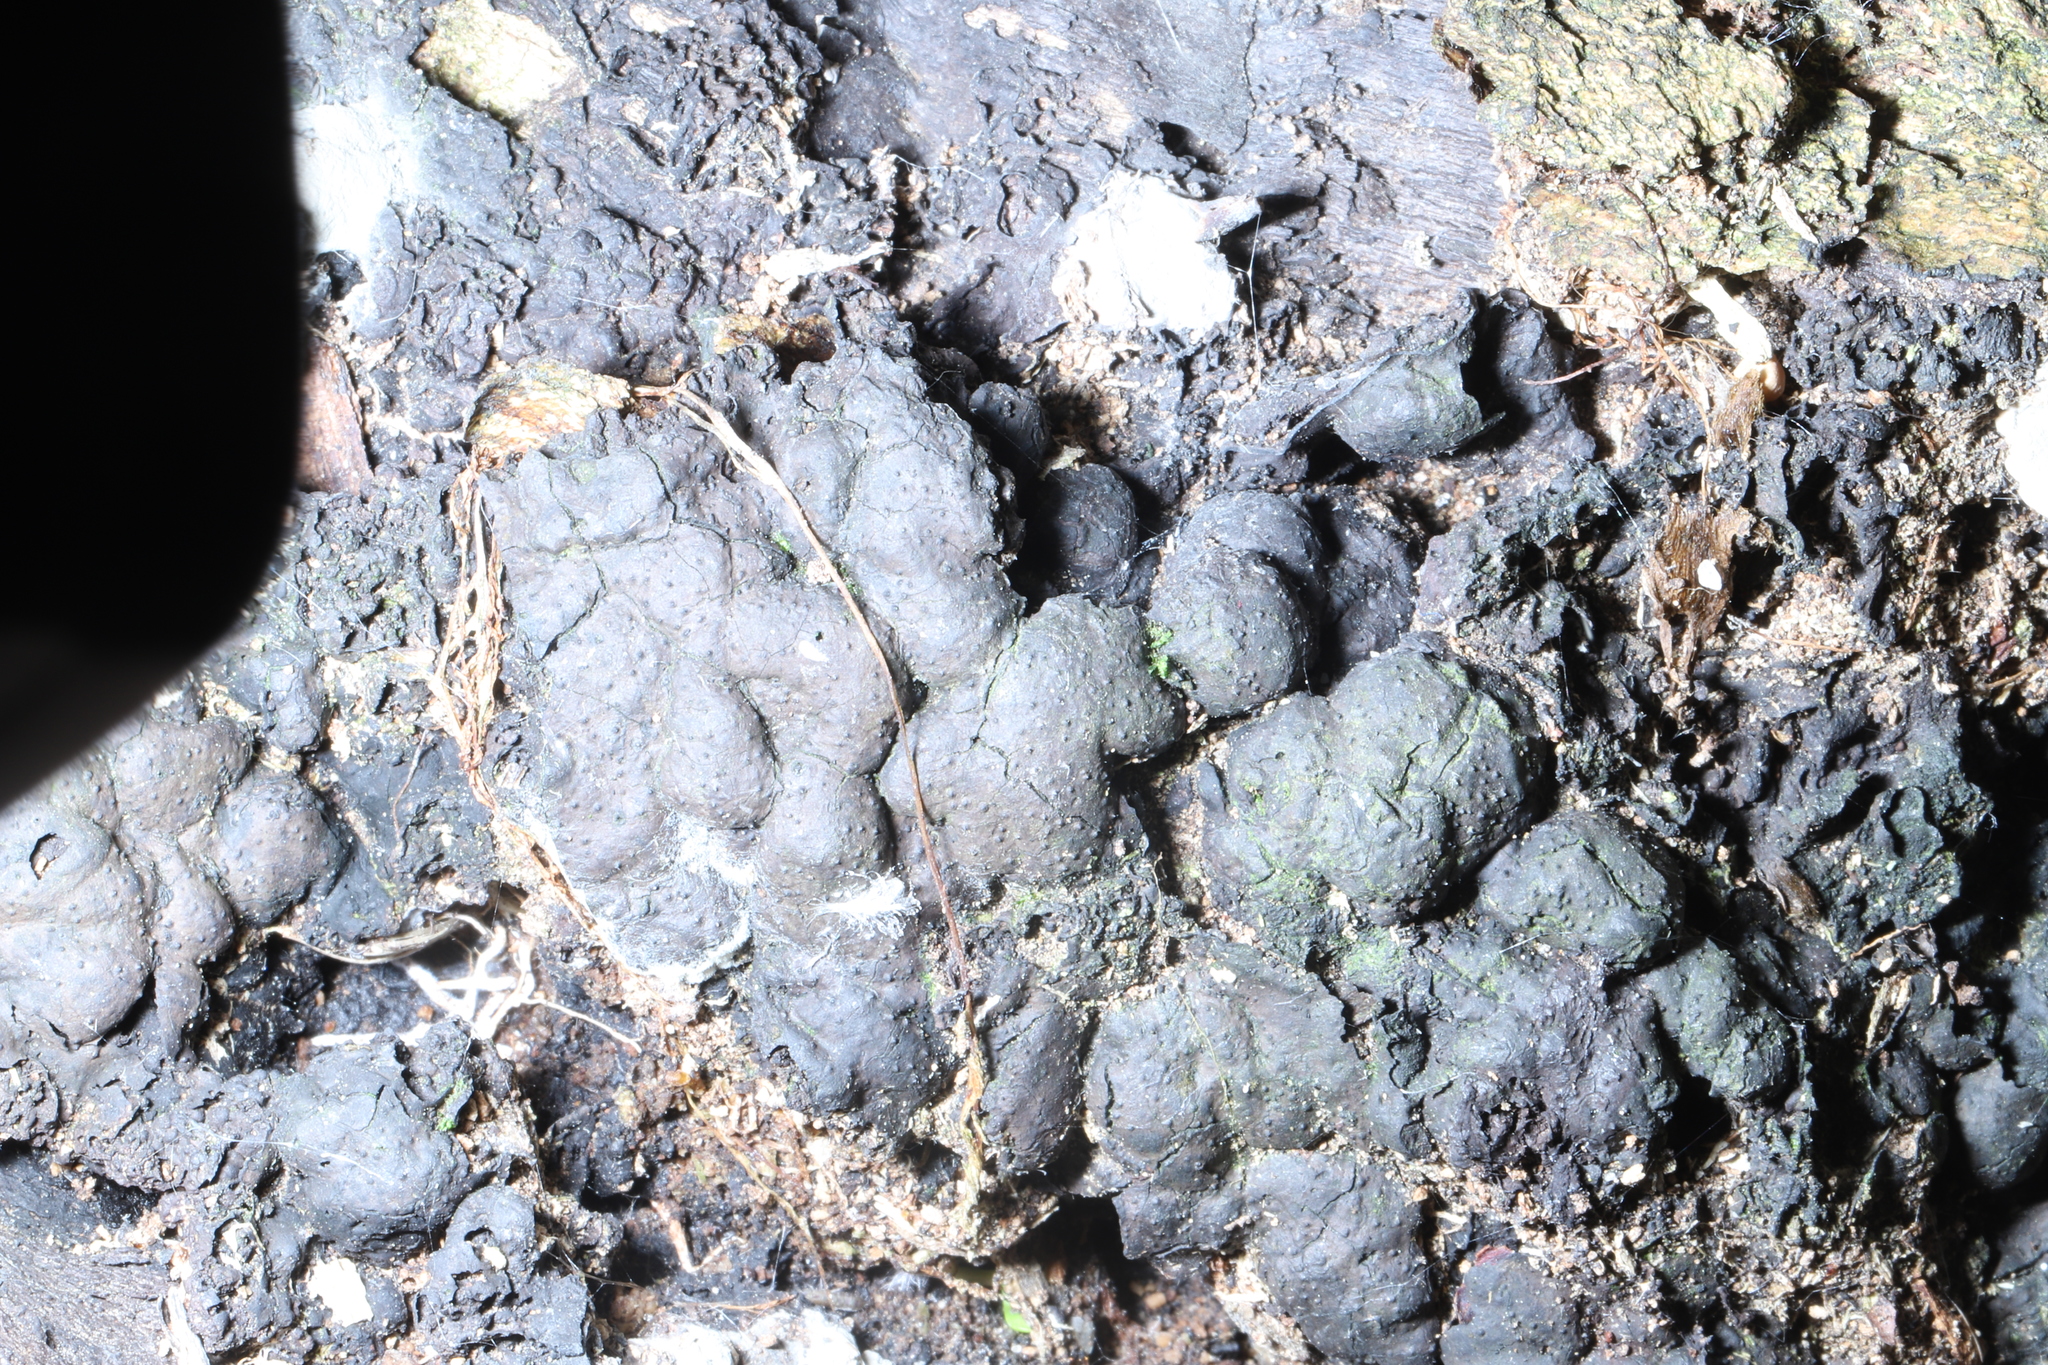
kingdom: Fungi
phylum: Ascomycota
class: Sordariomycetes
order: Xylariales
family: Xylariaceae
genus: Kretzschmaria
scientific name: Kretzschmaria deusta
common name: Brittle cinder
